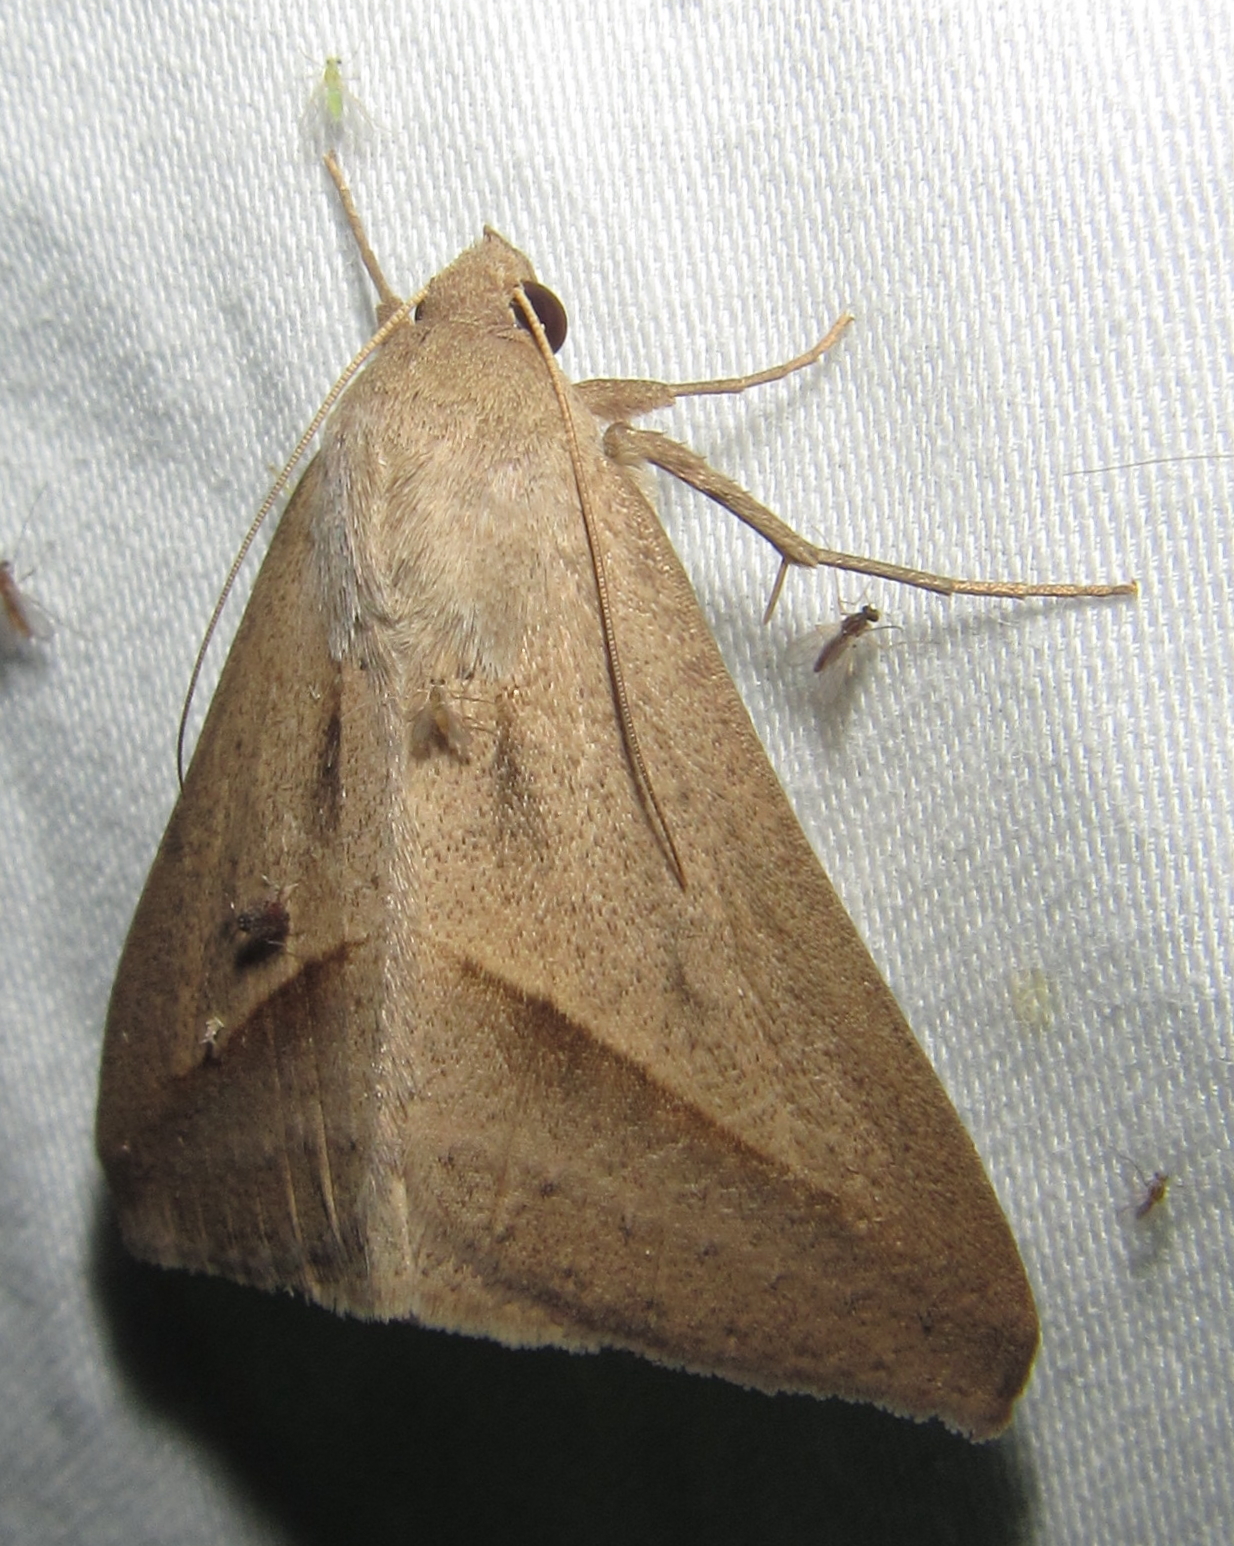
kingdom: Animalia
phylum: Arthropoda
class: Insecta
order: Lepidoptera
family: Erebidae
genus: Mocis
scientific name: Mocis proverai
